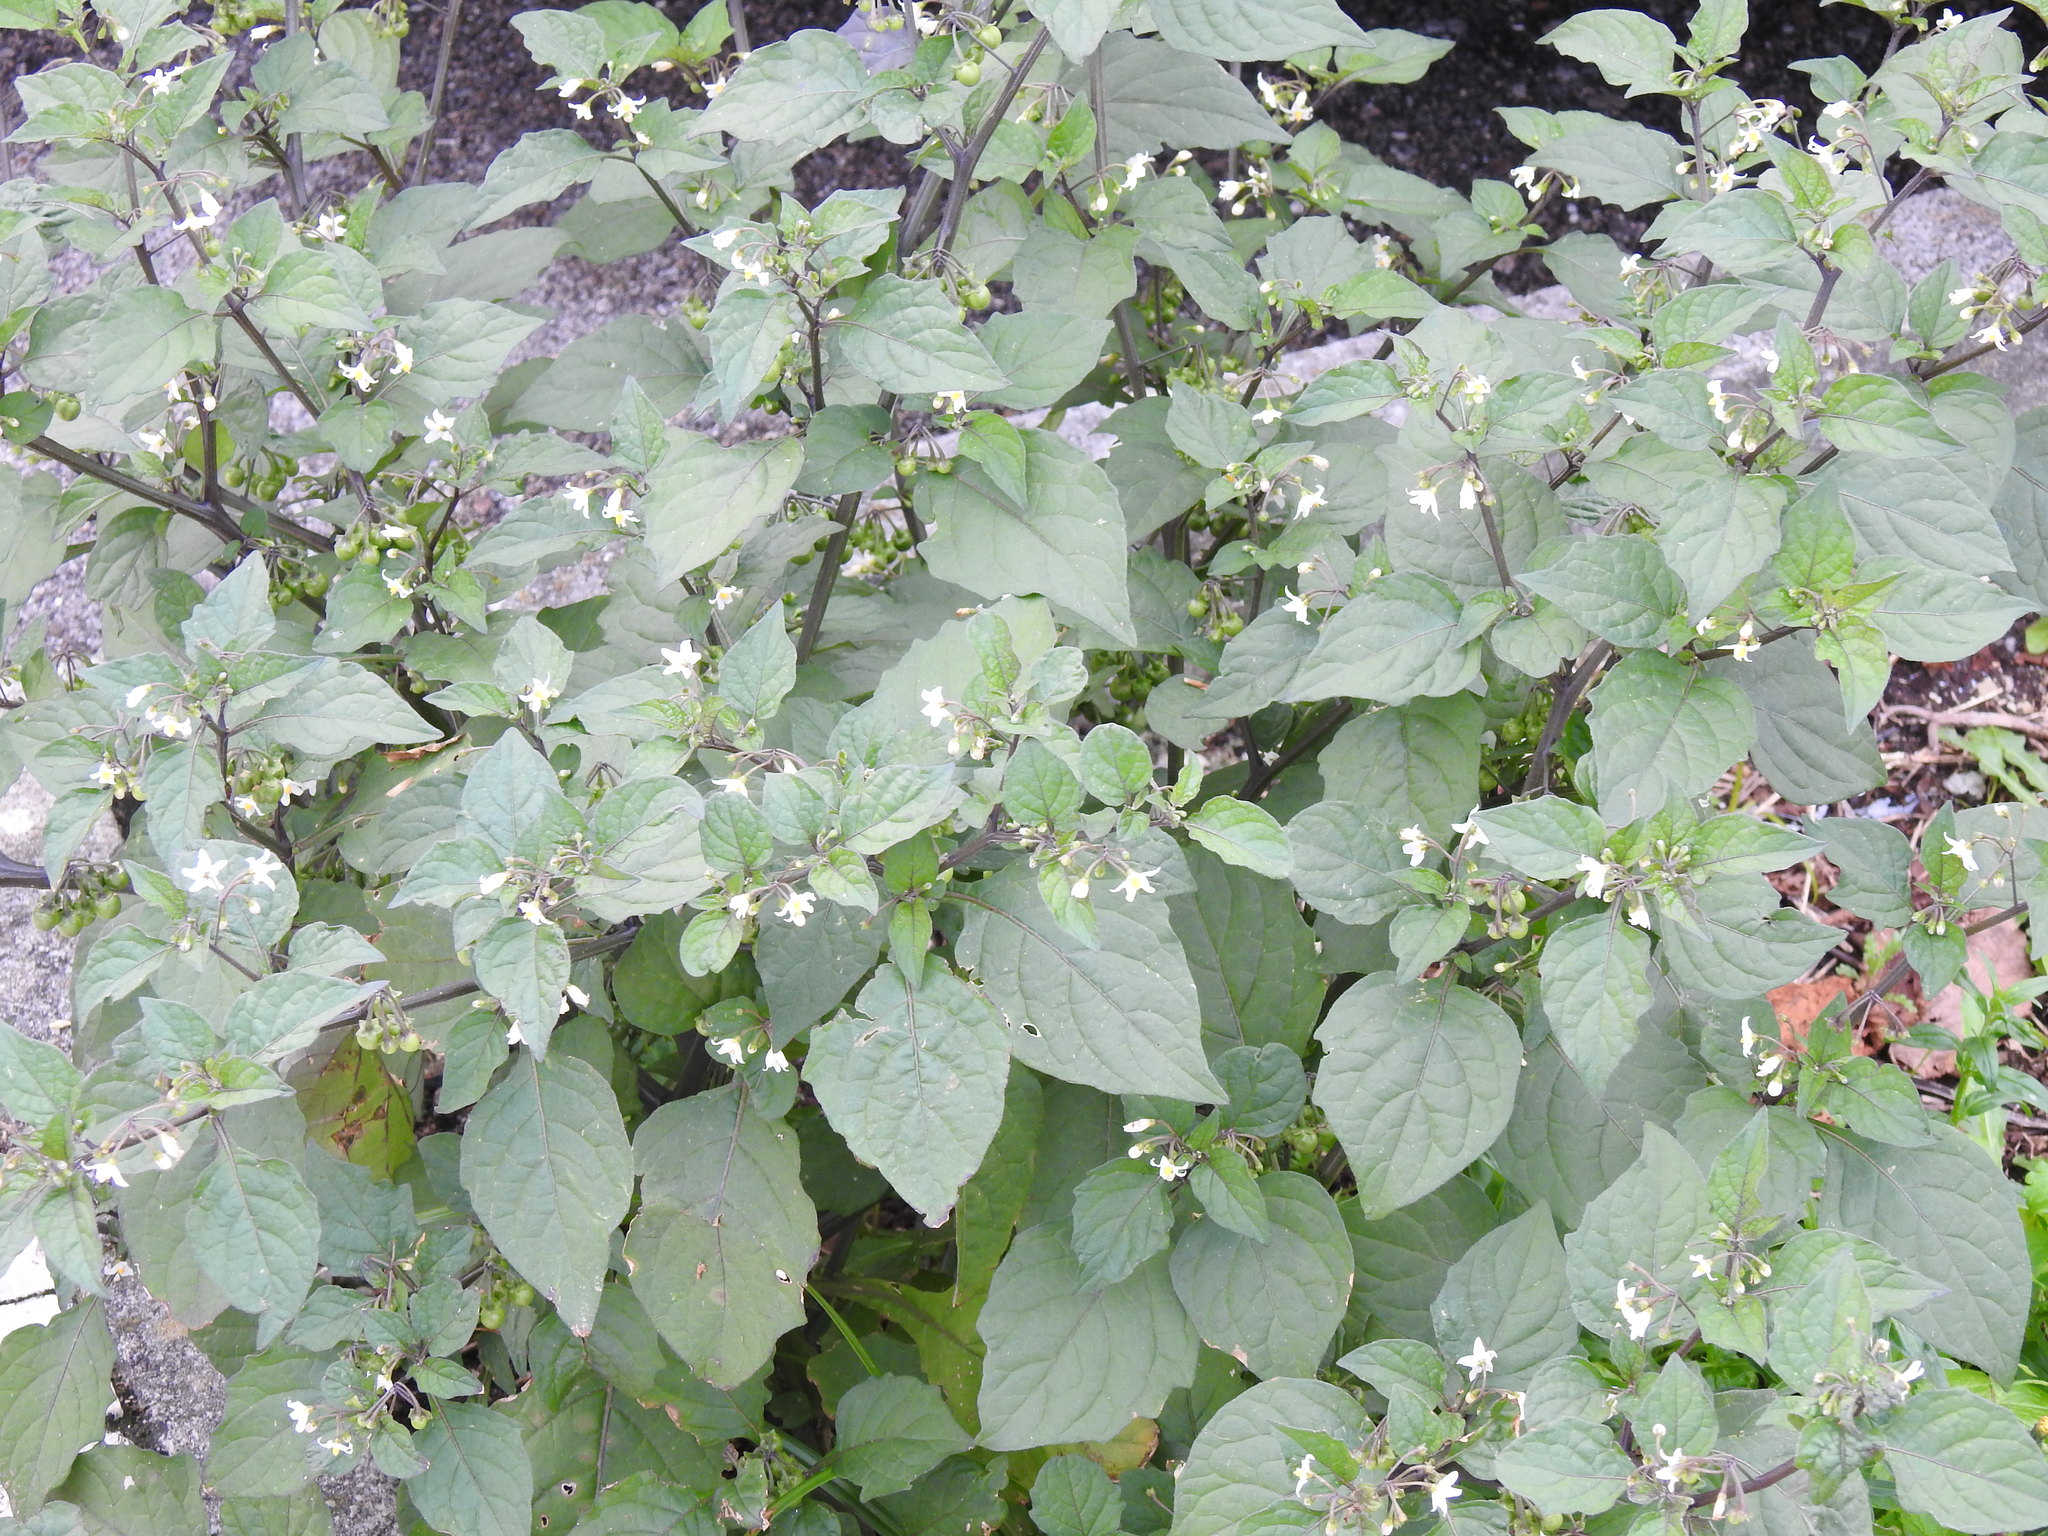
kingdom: Plantae
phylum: Tracheophyta
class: Magnoliopsida
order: Solanales
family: Solanaceae
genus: Solanum
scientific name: Solanum nigrum
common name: Black nightshade
